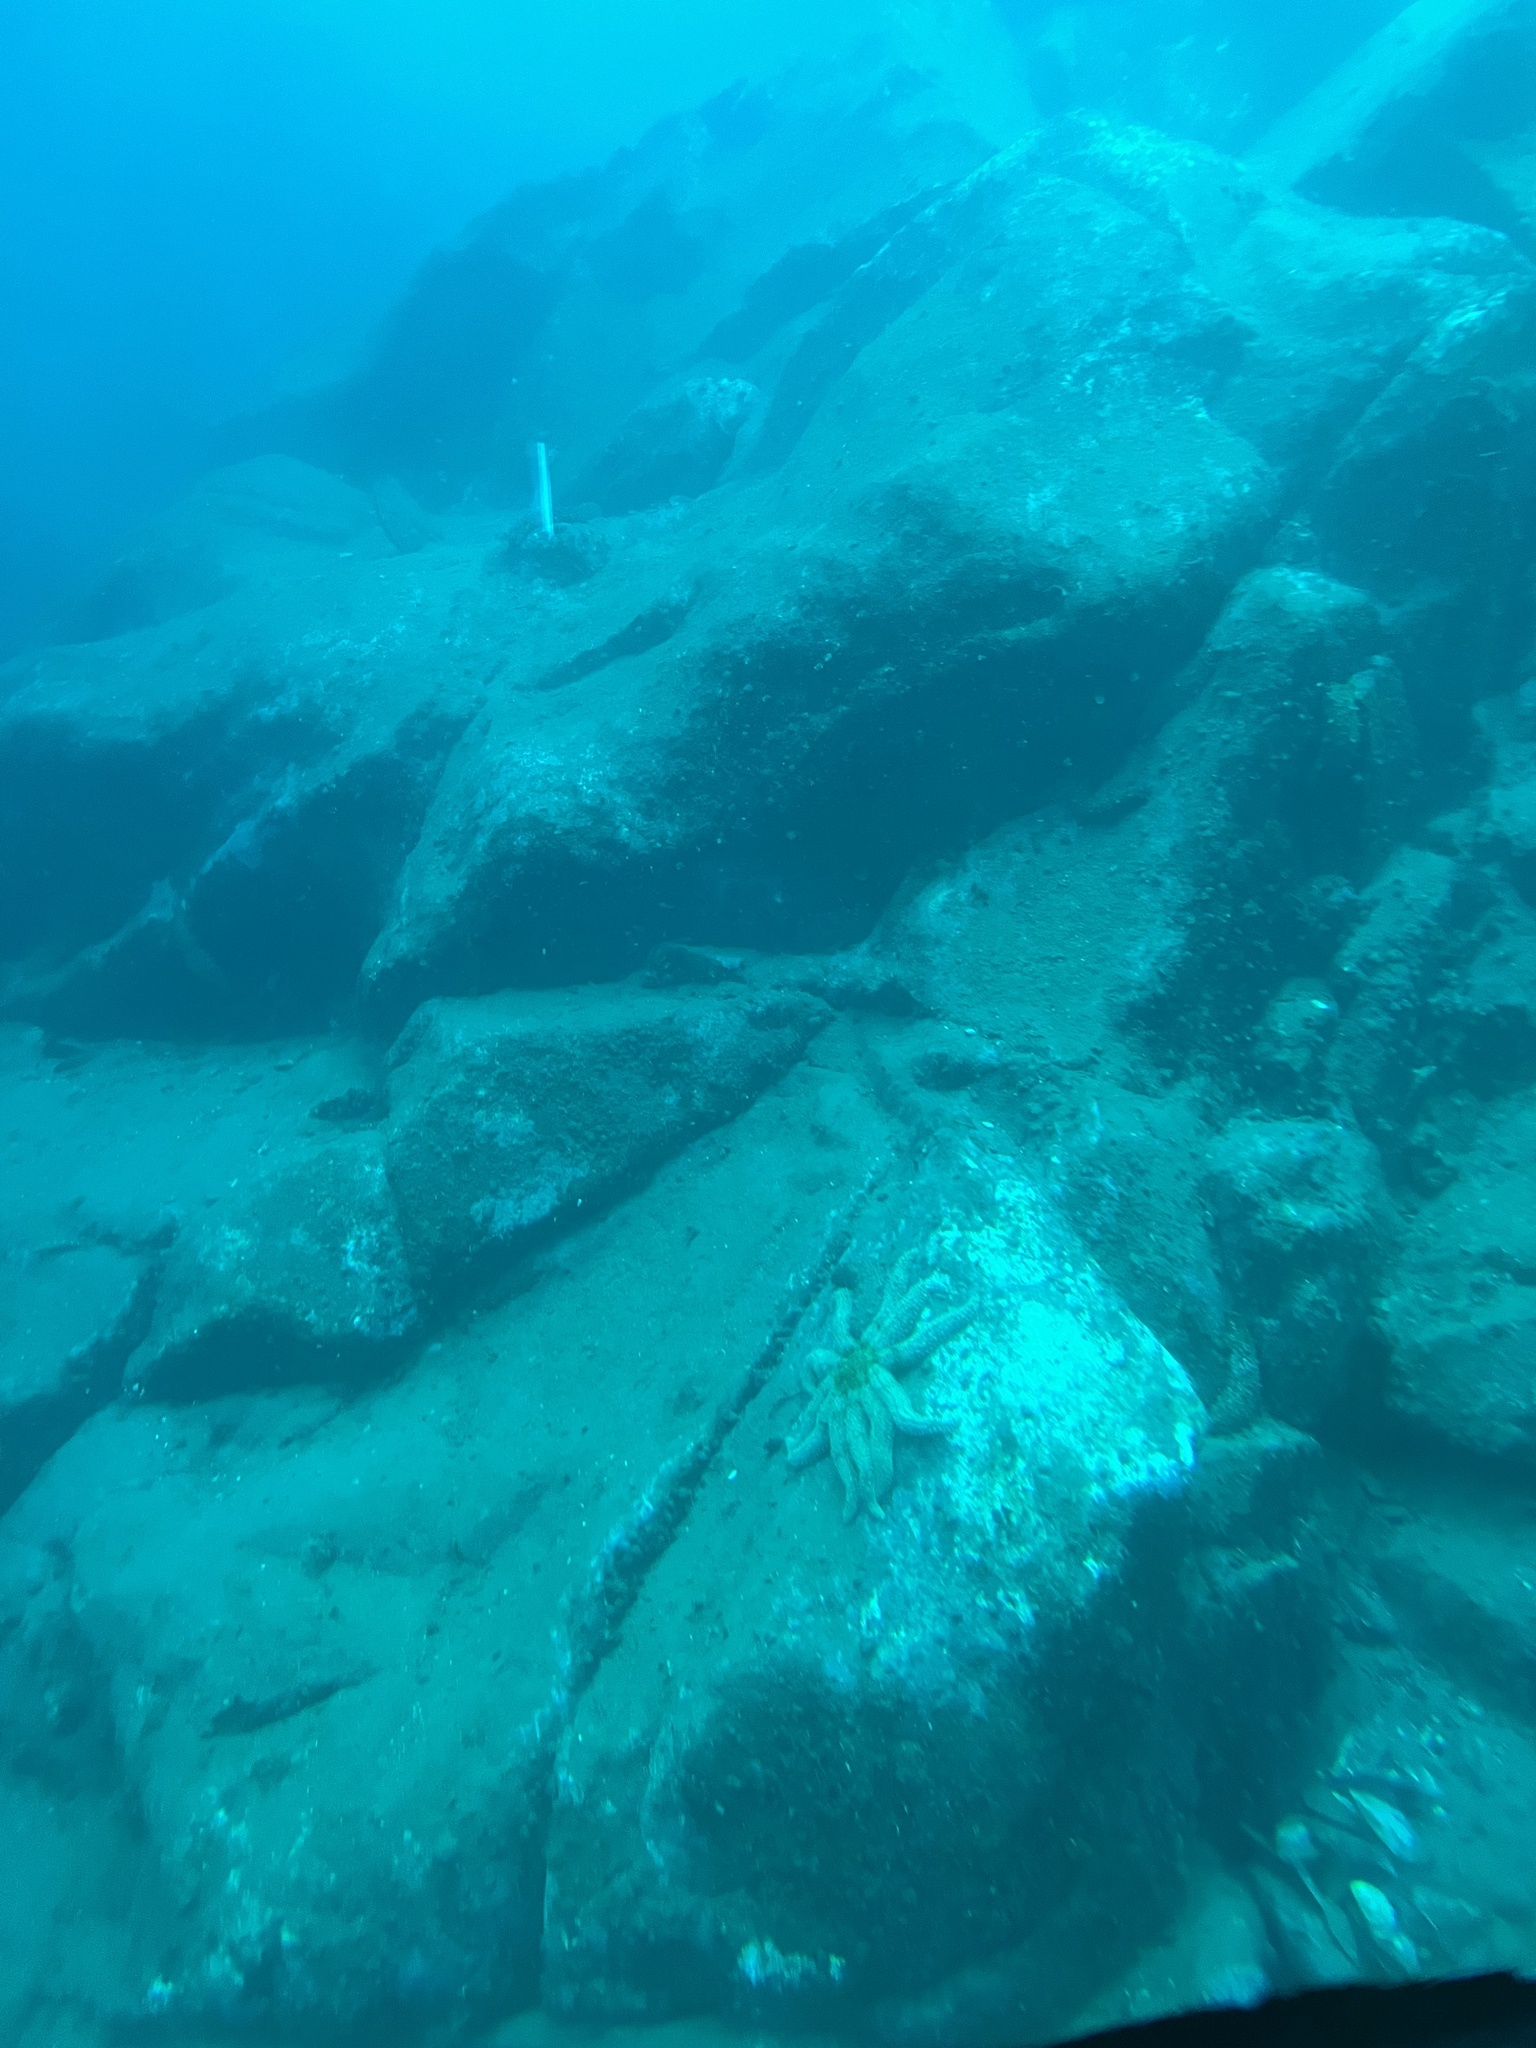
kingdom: Animalia
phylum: Echinodermata
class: Asteroidea
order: Forcipulatida
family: Asteriidae
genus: Coscinasterias
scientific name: Coscinasterias muricata
